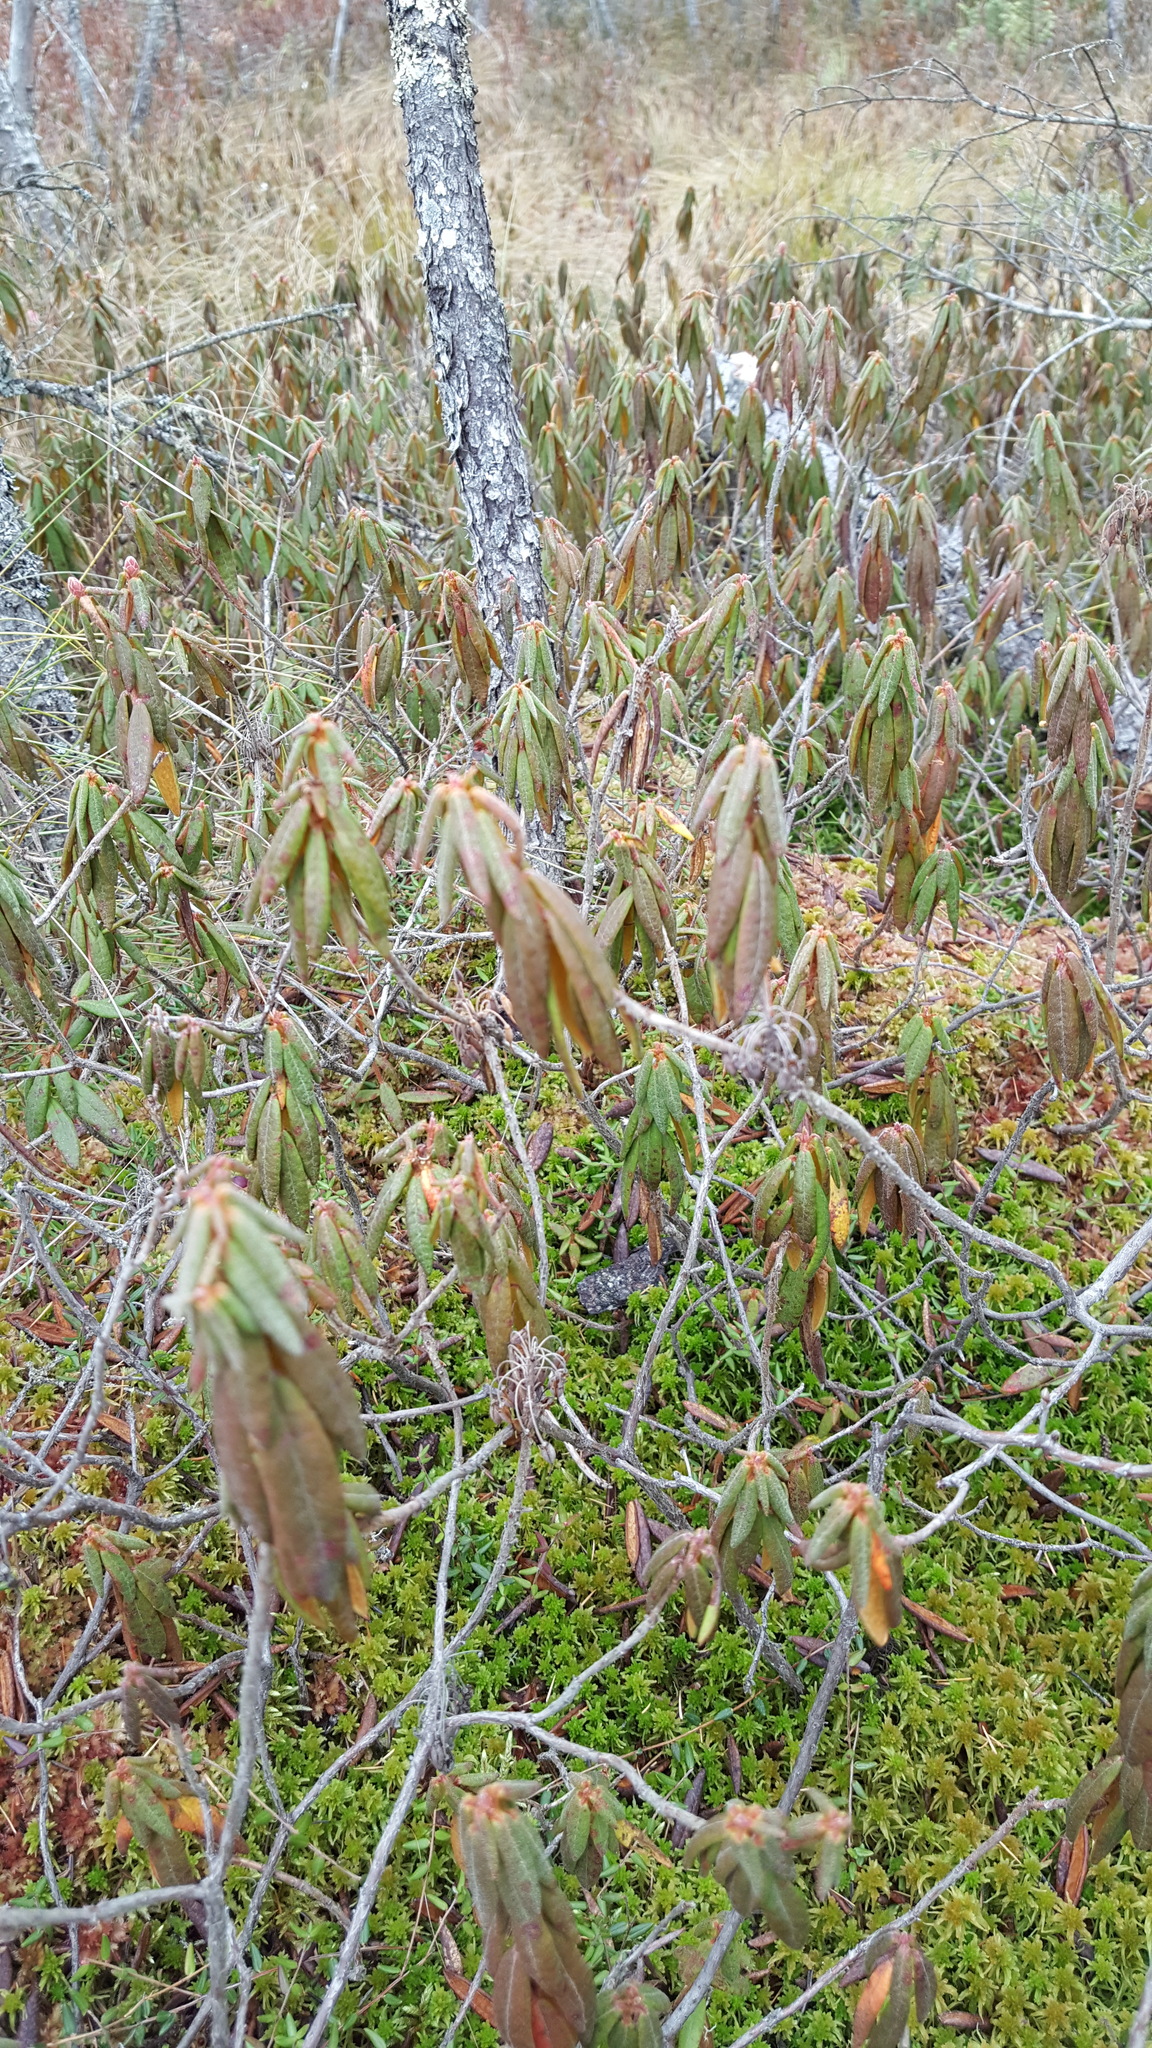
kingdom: Plantae
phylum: Tracheophyta
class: Magnoliopsida
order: Ericales
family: Ericaceae
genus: Rhododendron
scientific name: Rhododendron groenlandicum
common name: Bog labrador tea
